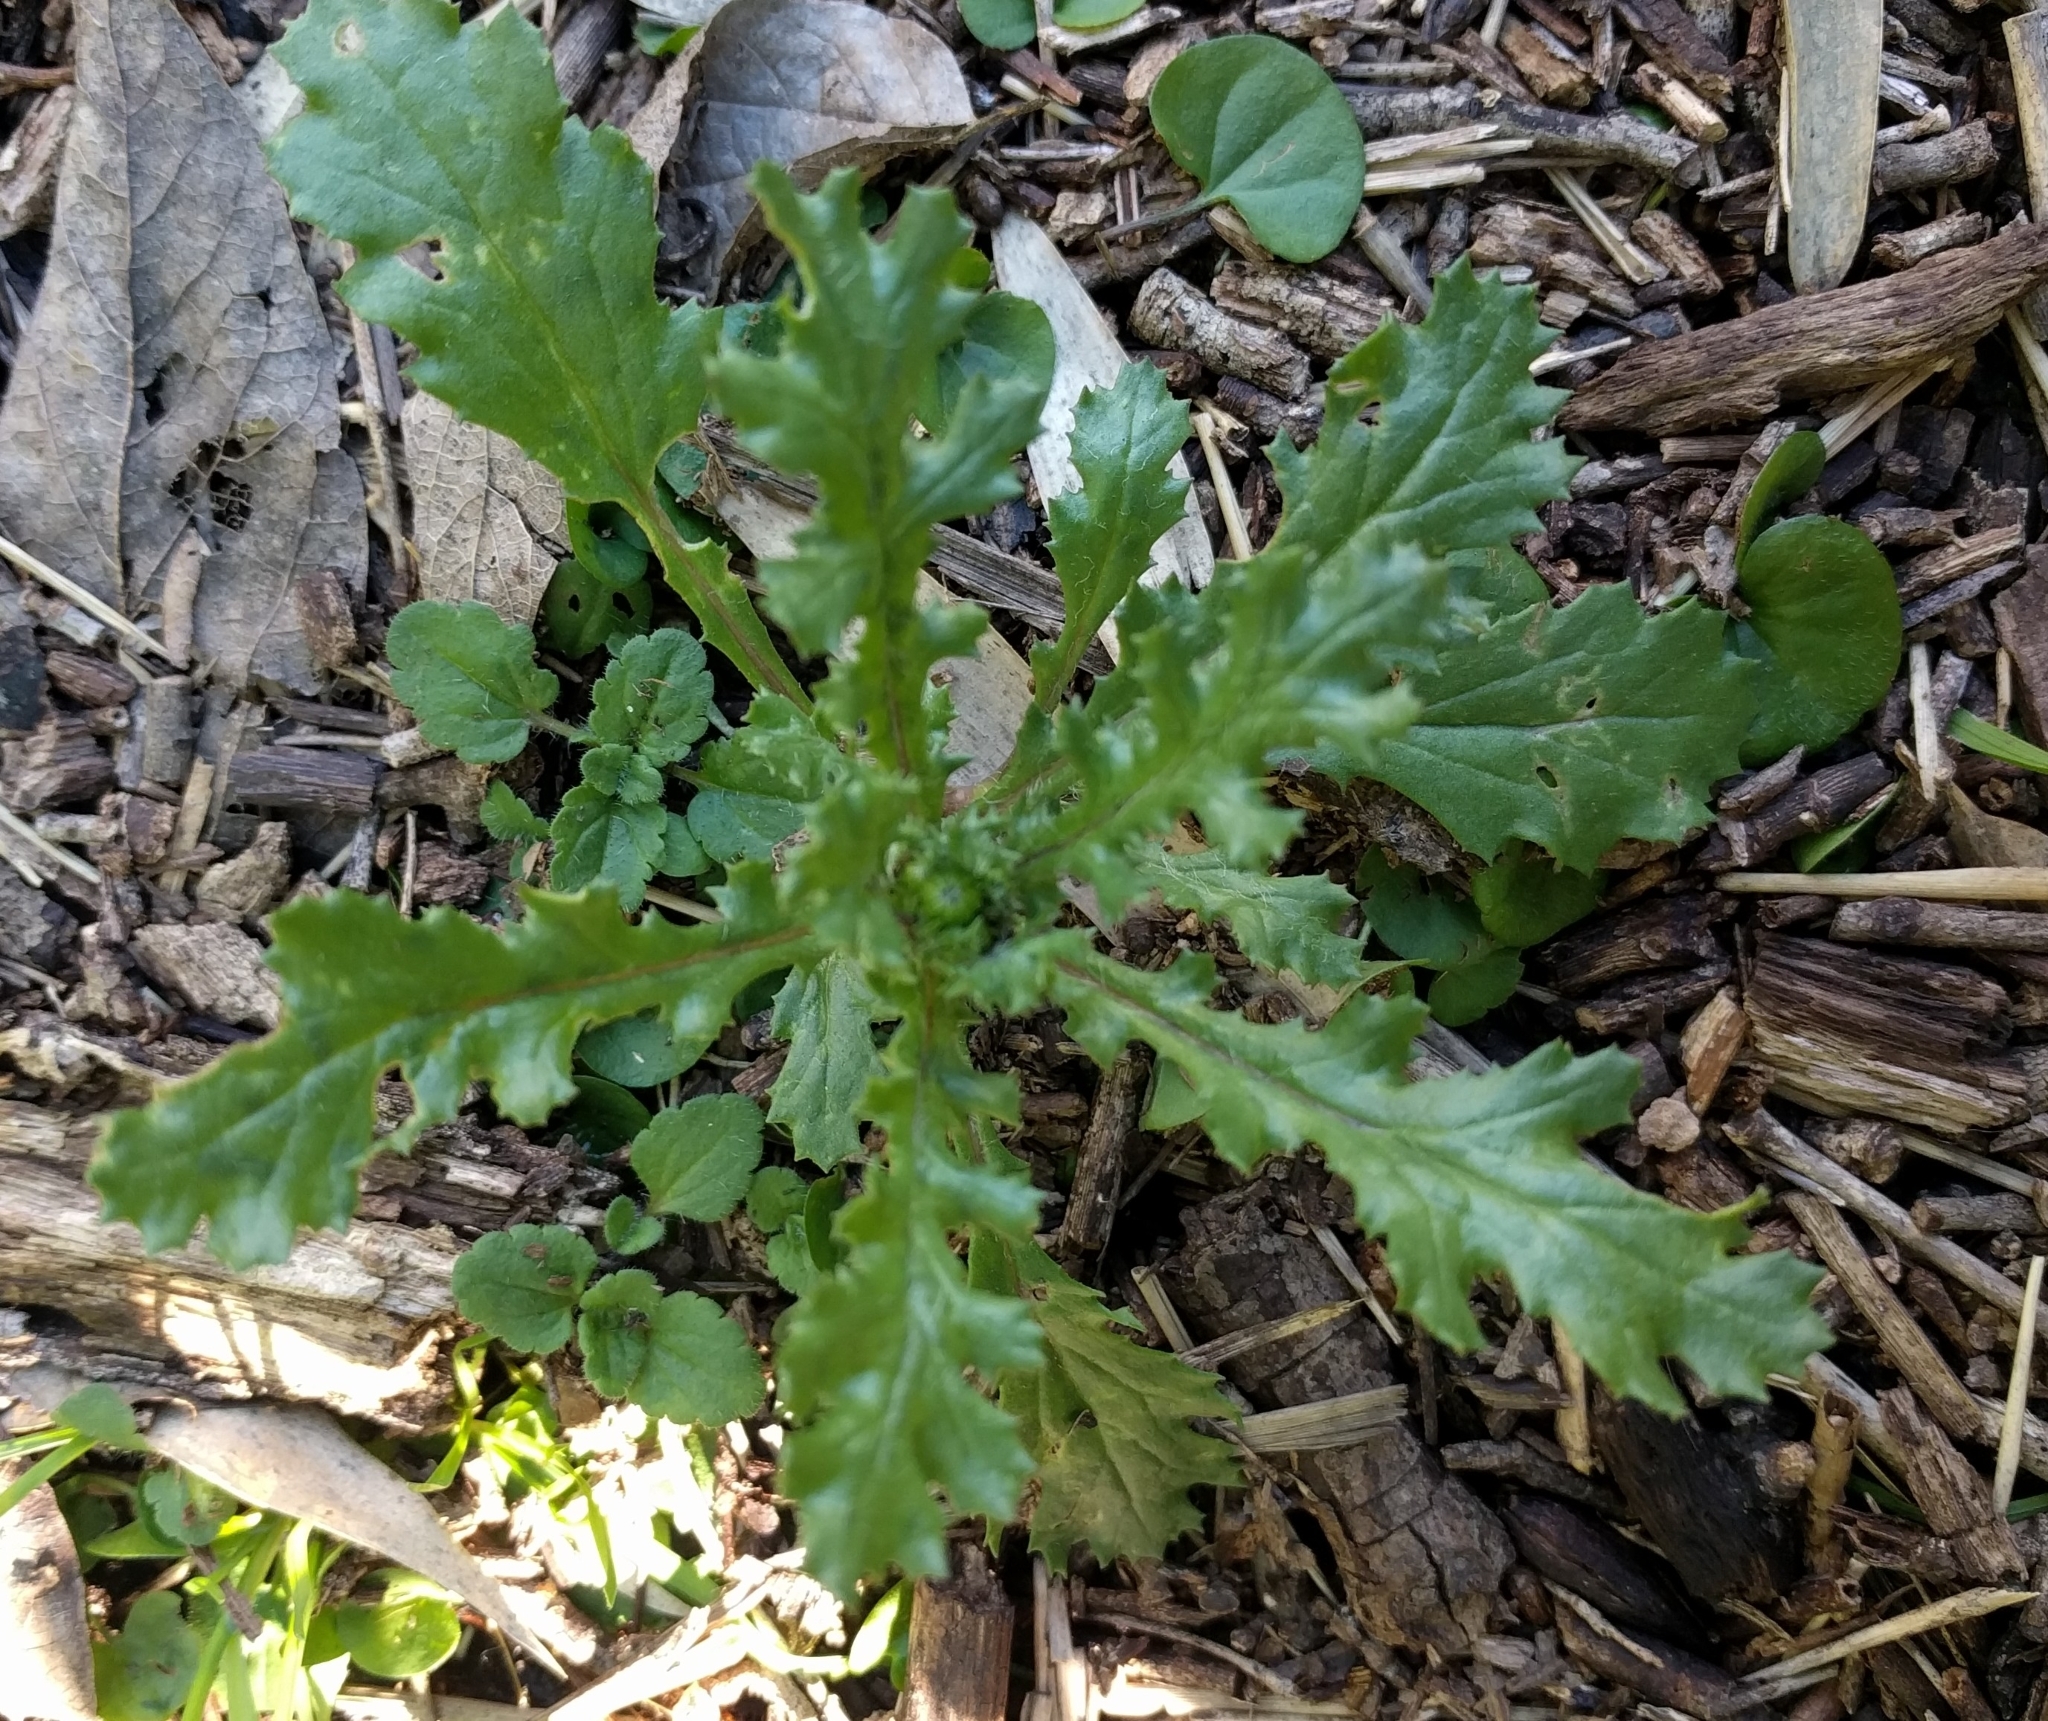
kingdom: Plantae
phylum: Tracheophyta
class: Magnoliopsida
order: Asterales
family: Asteraceae
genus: Senecio
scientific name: Senecio vulgaris
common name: Old-man-in-the-spring
